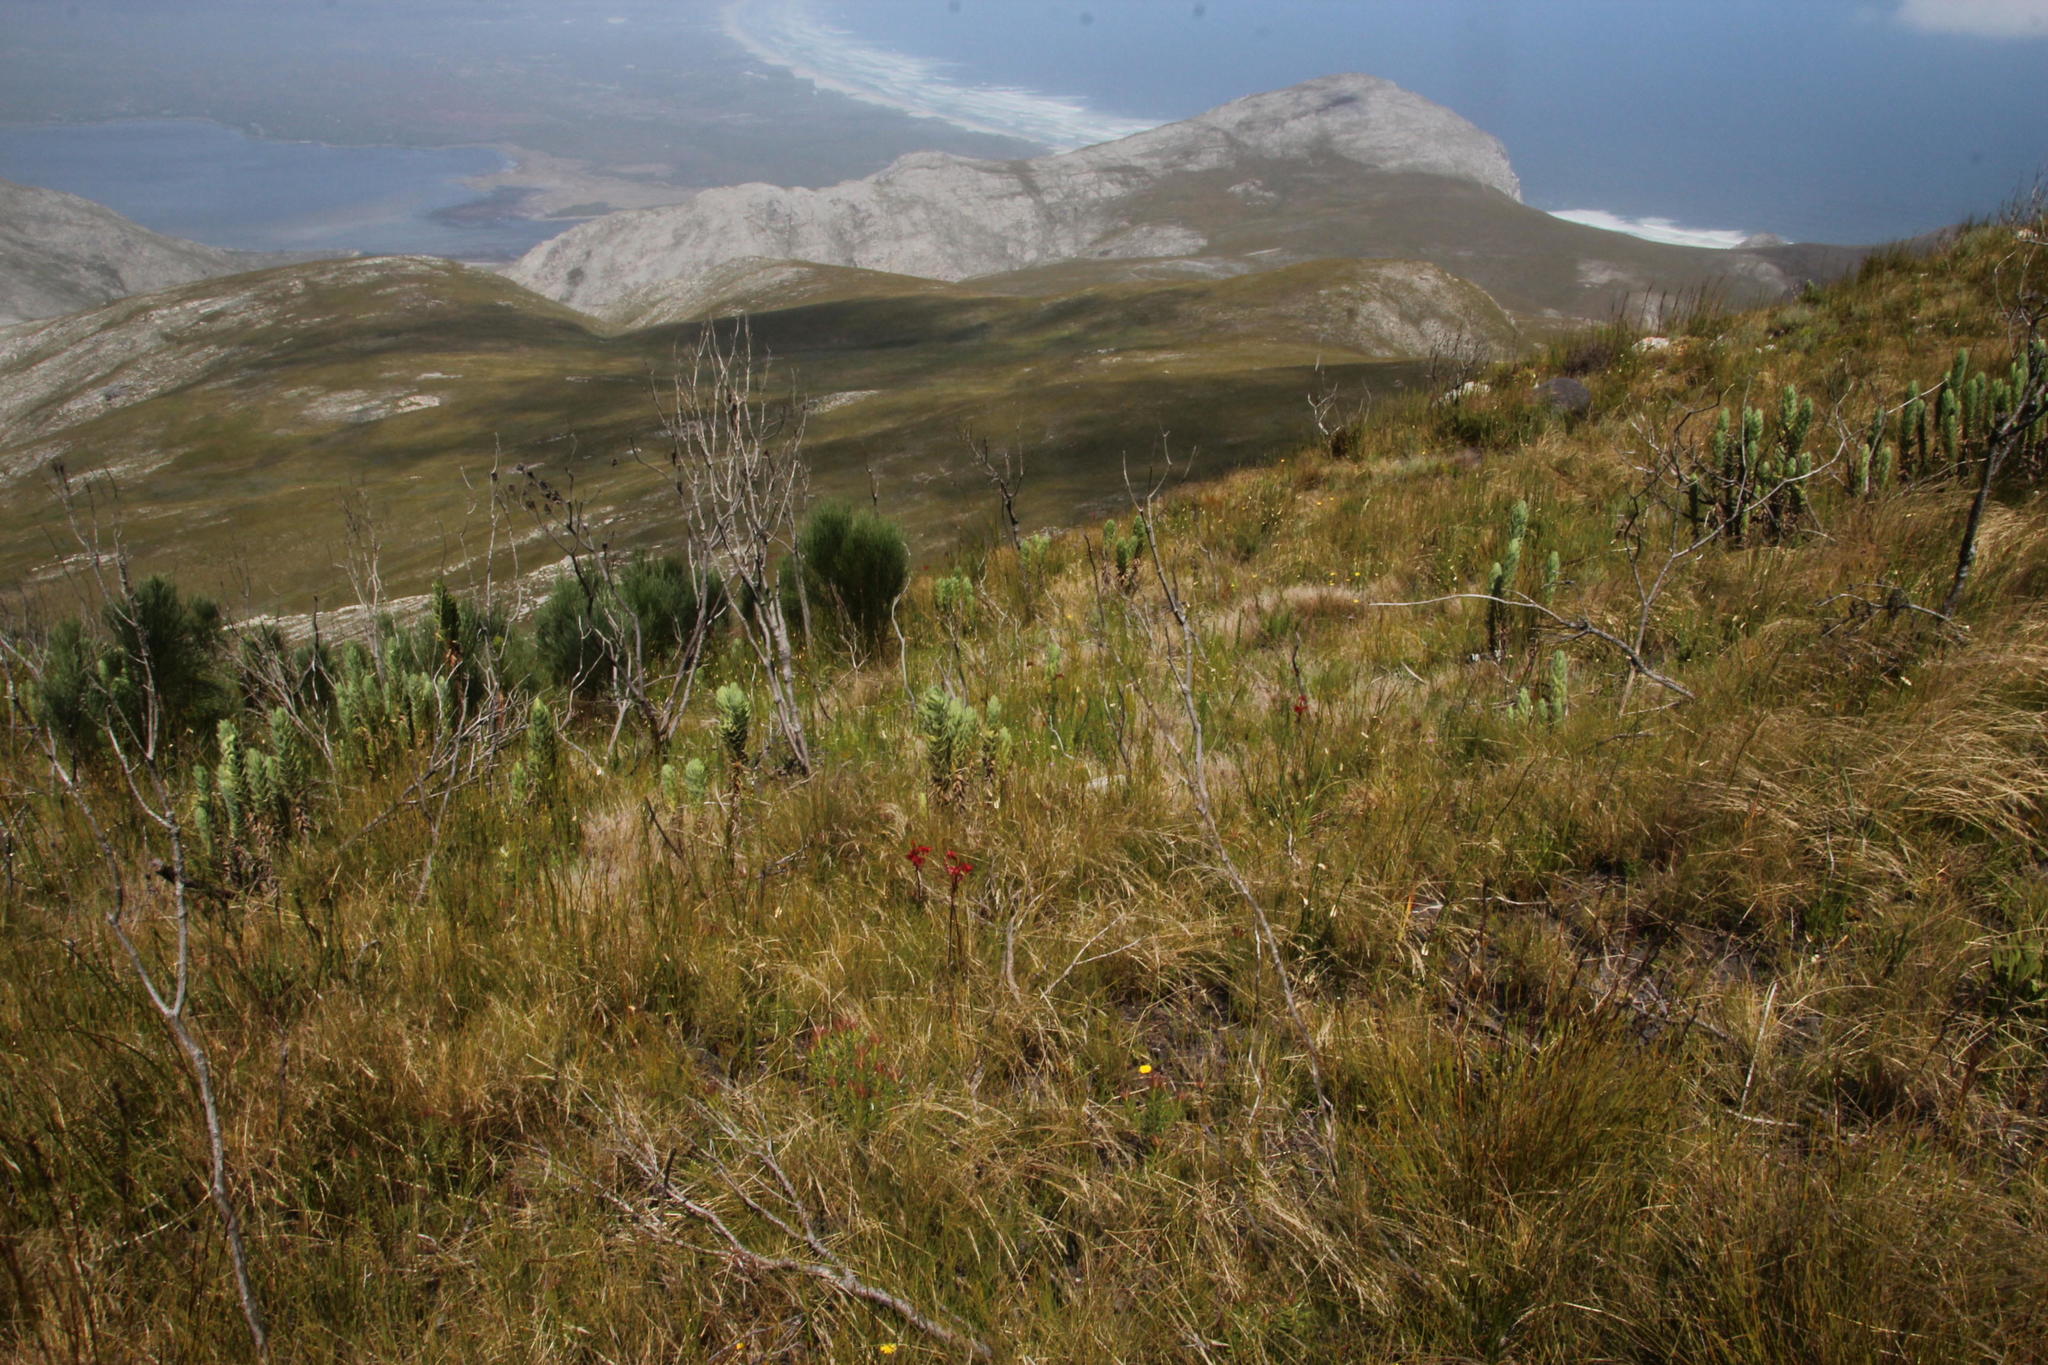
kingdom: Plantae
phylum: Tracheophyta
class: Magnoliopsida
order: Asterales
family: Asteraceae
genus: Osmitopsis
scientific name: Osmitopsis asteriscoides
